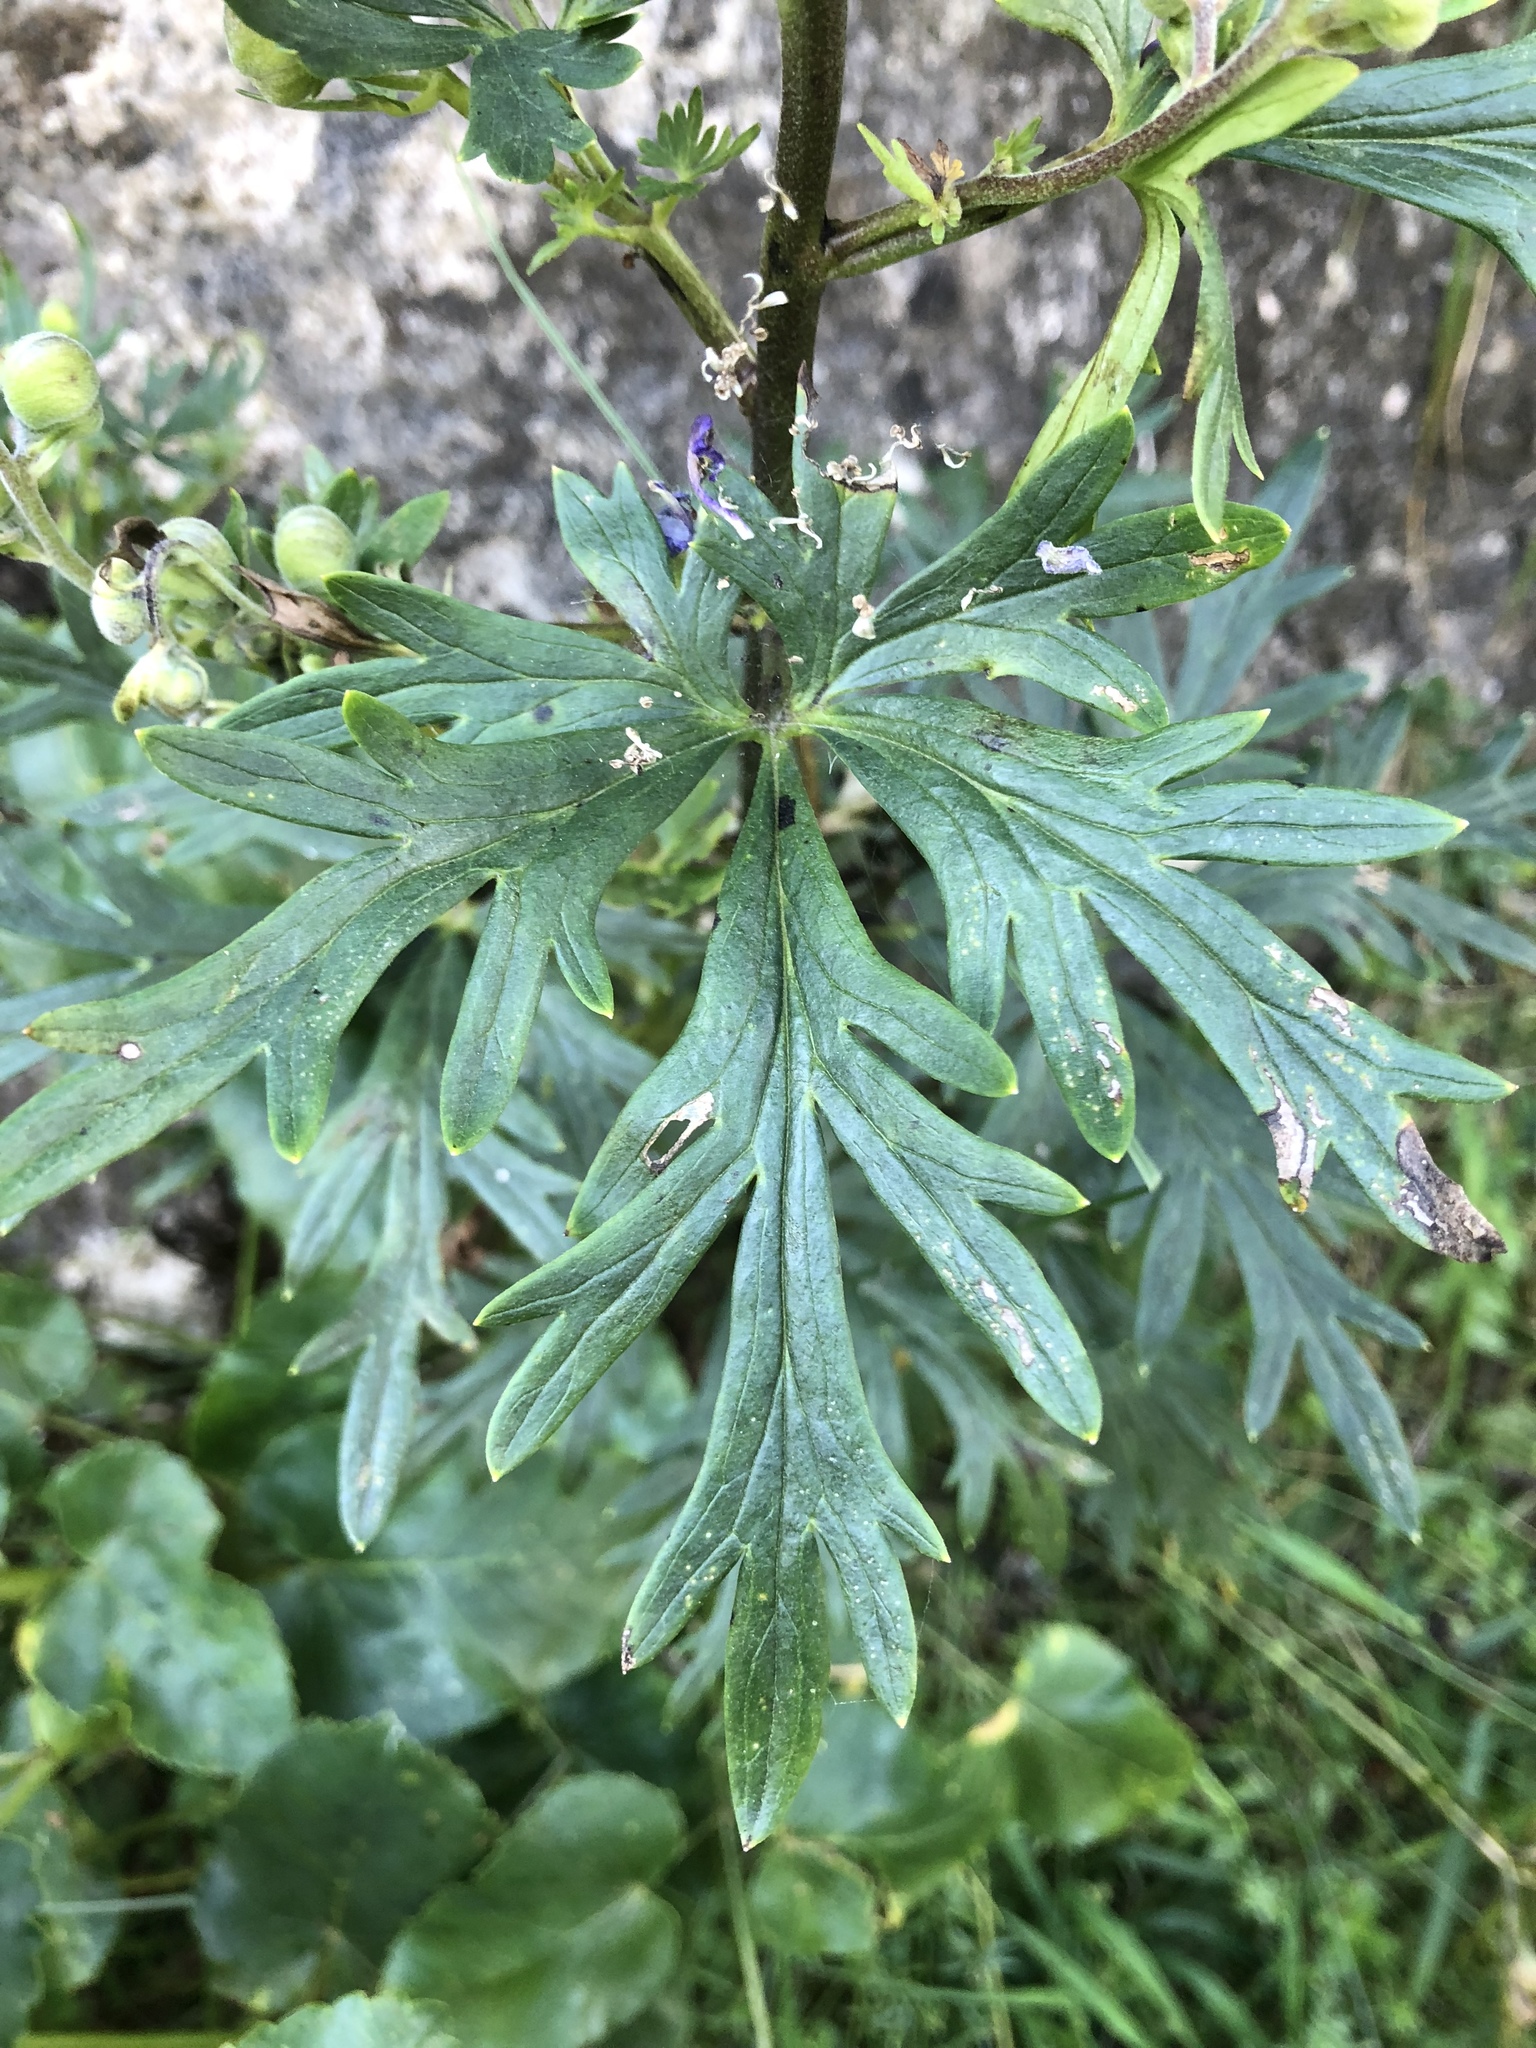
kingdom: Plantae
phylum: Tracheophyta
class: Magnoliopsida
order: Ranunculales
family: Ranunculaceae
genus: Aconitum
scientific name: Aconitum bucovinense
